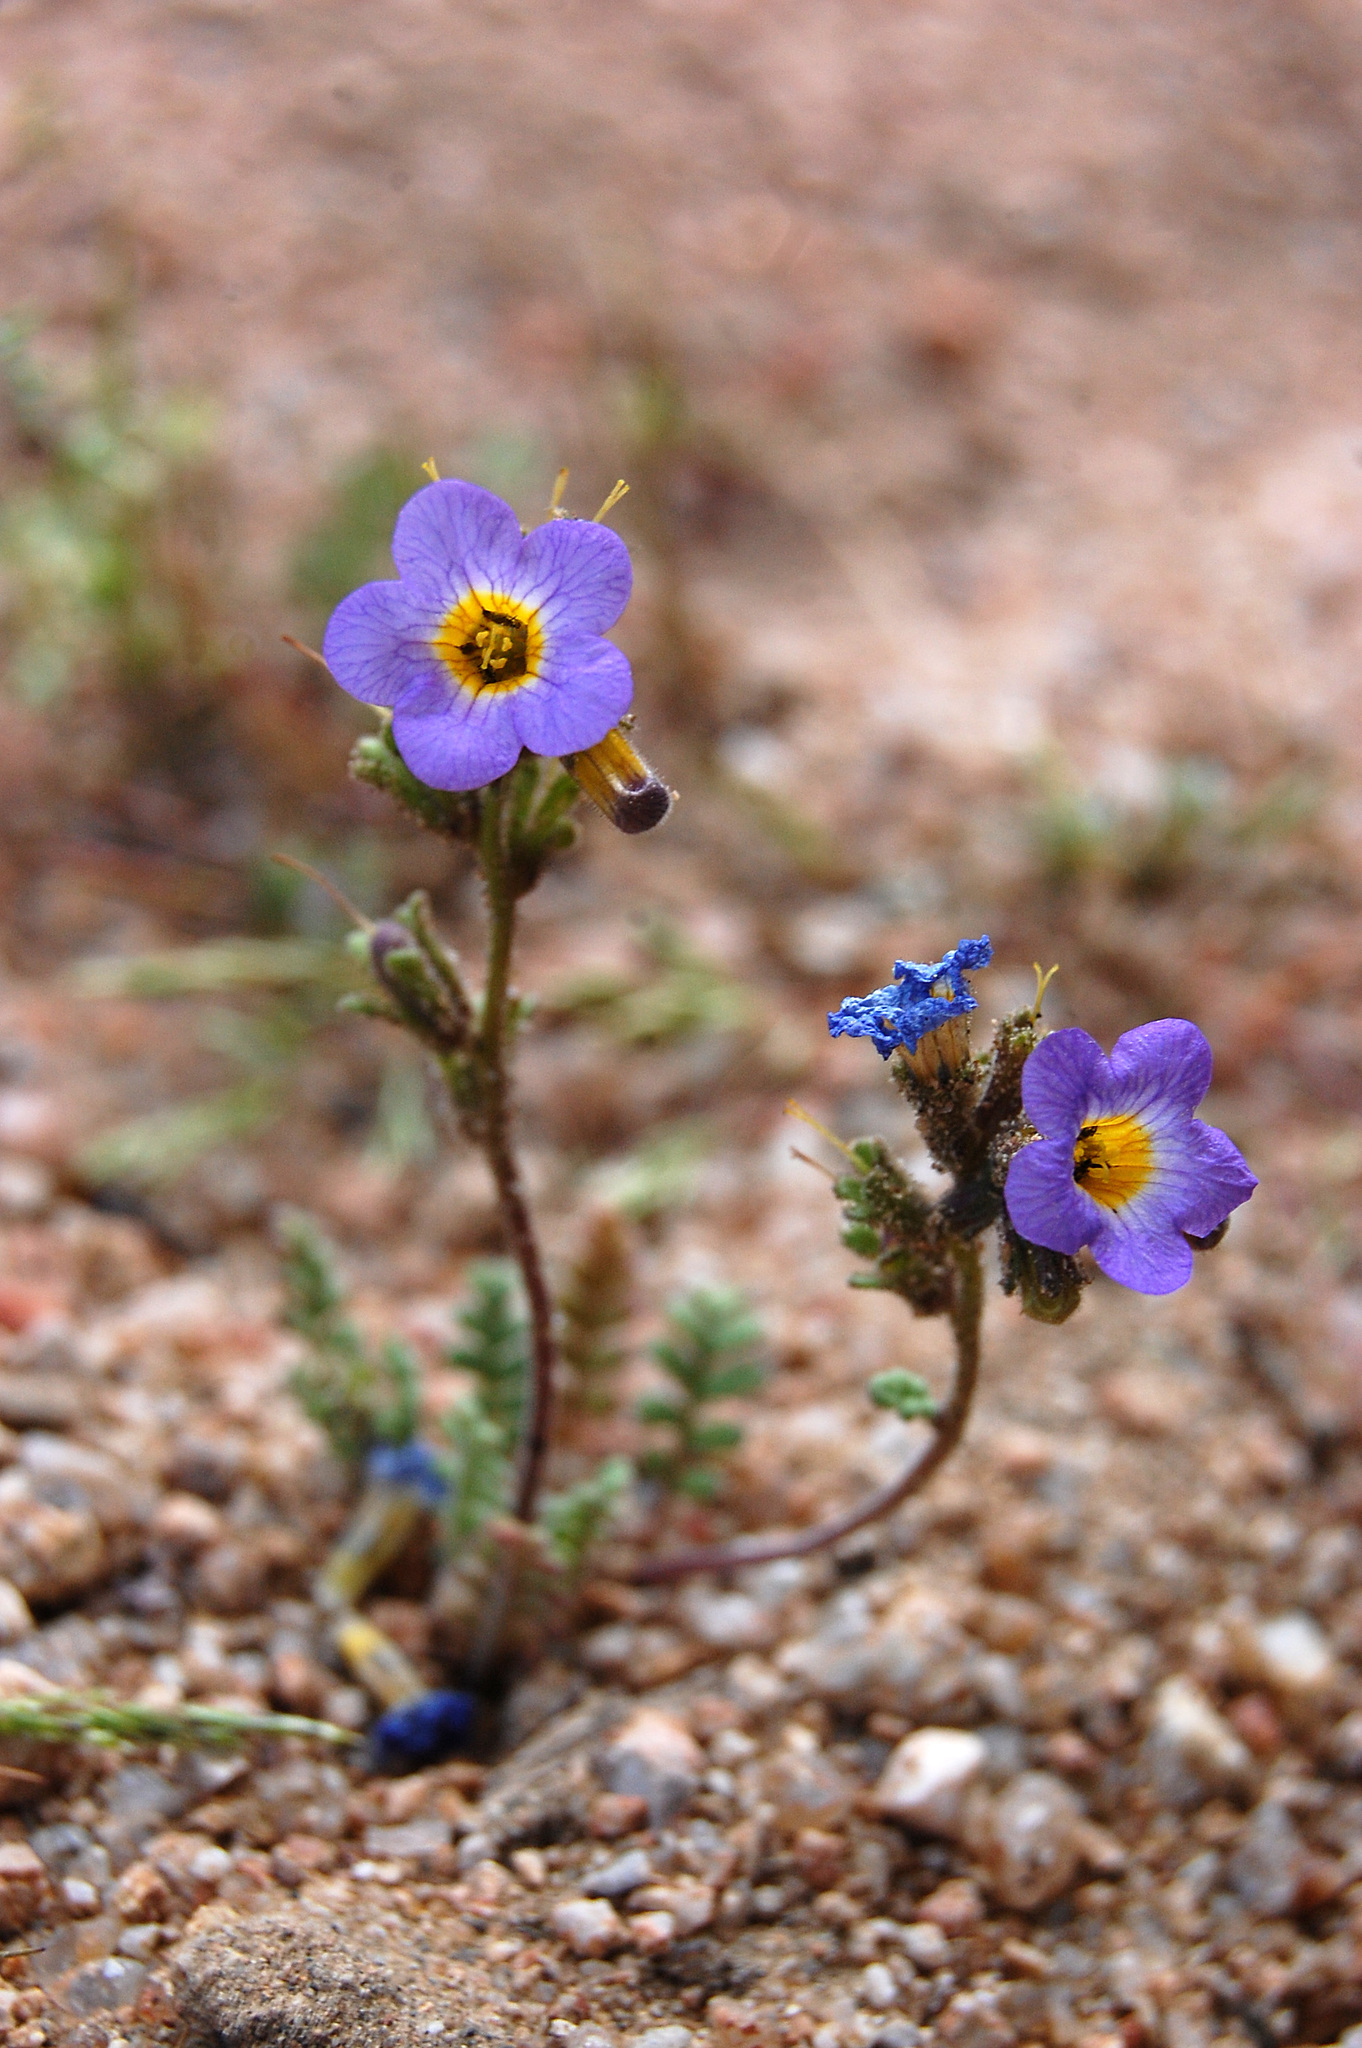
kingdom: Plantae
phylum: Tracheophyta
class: Magnoliopsida
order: Boraginales
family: Hydrophyllaceae
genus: Phacelia
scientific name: Phacelia fremontii
